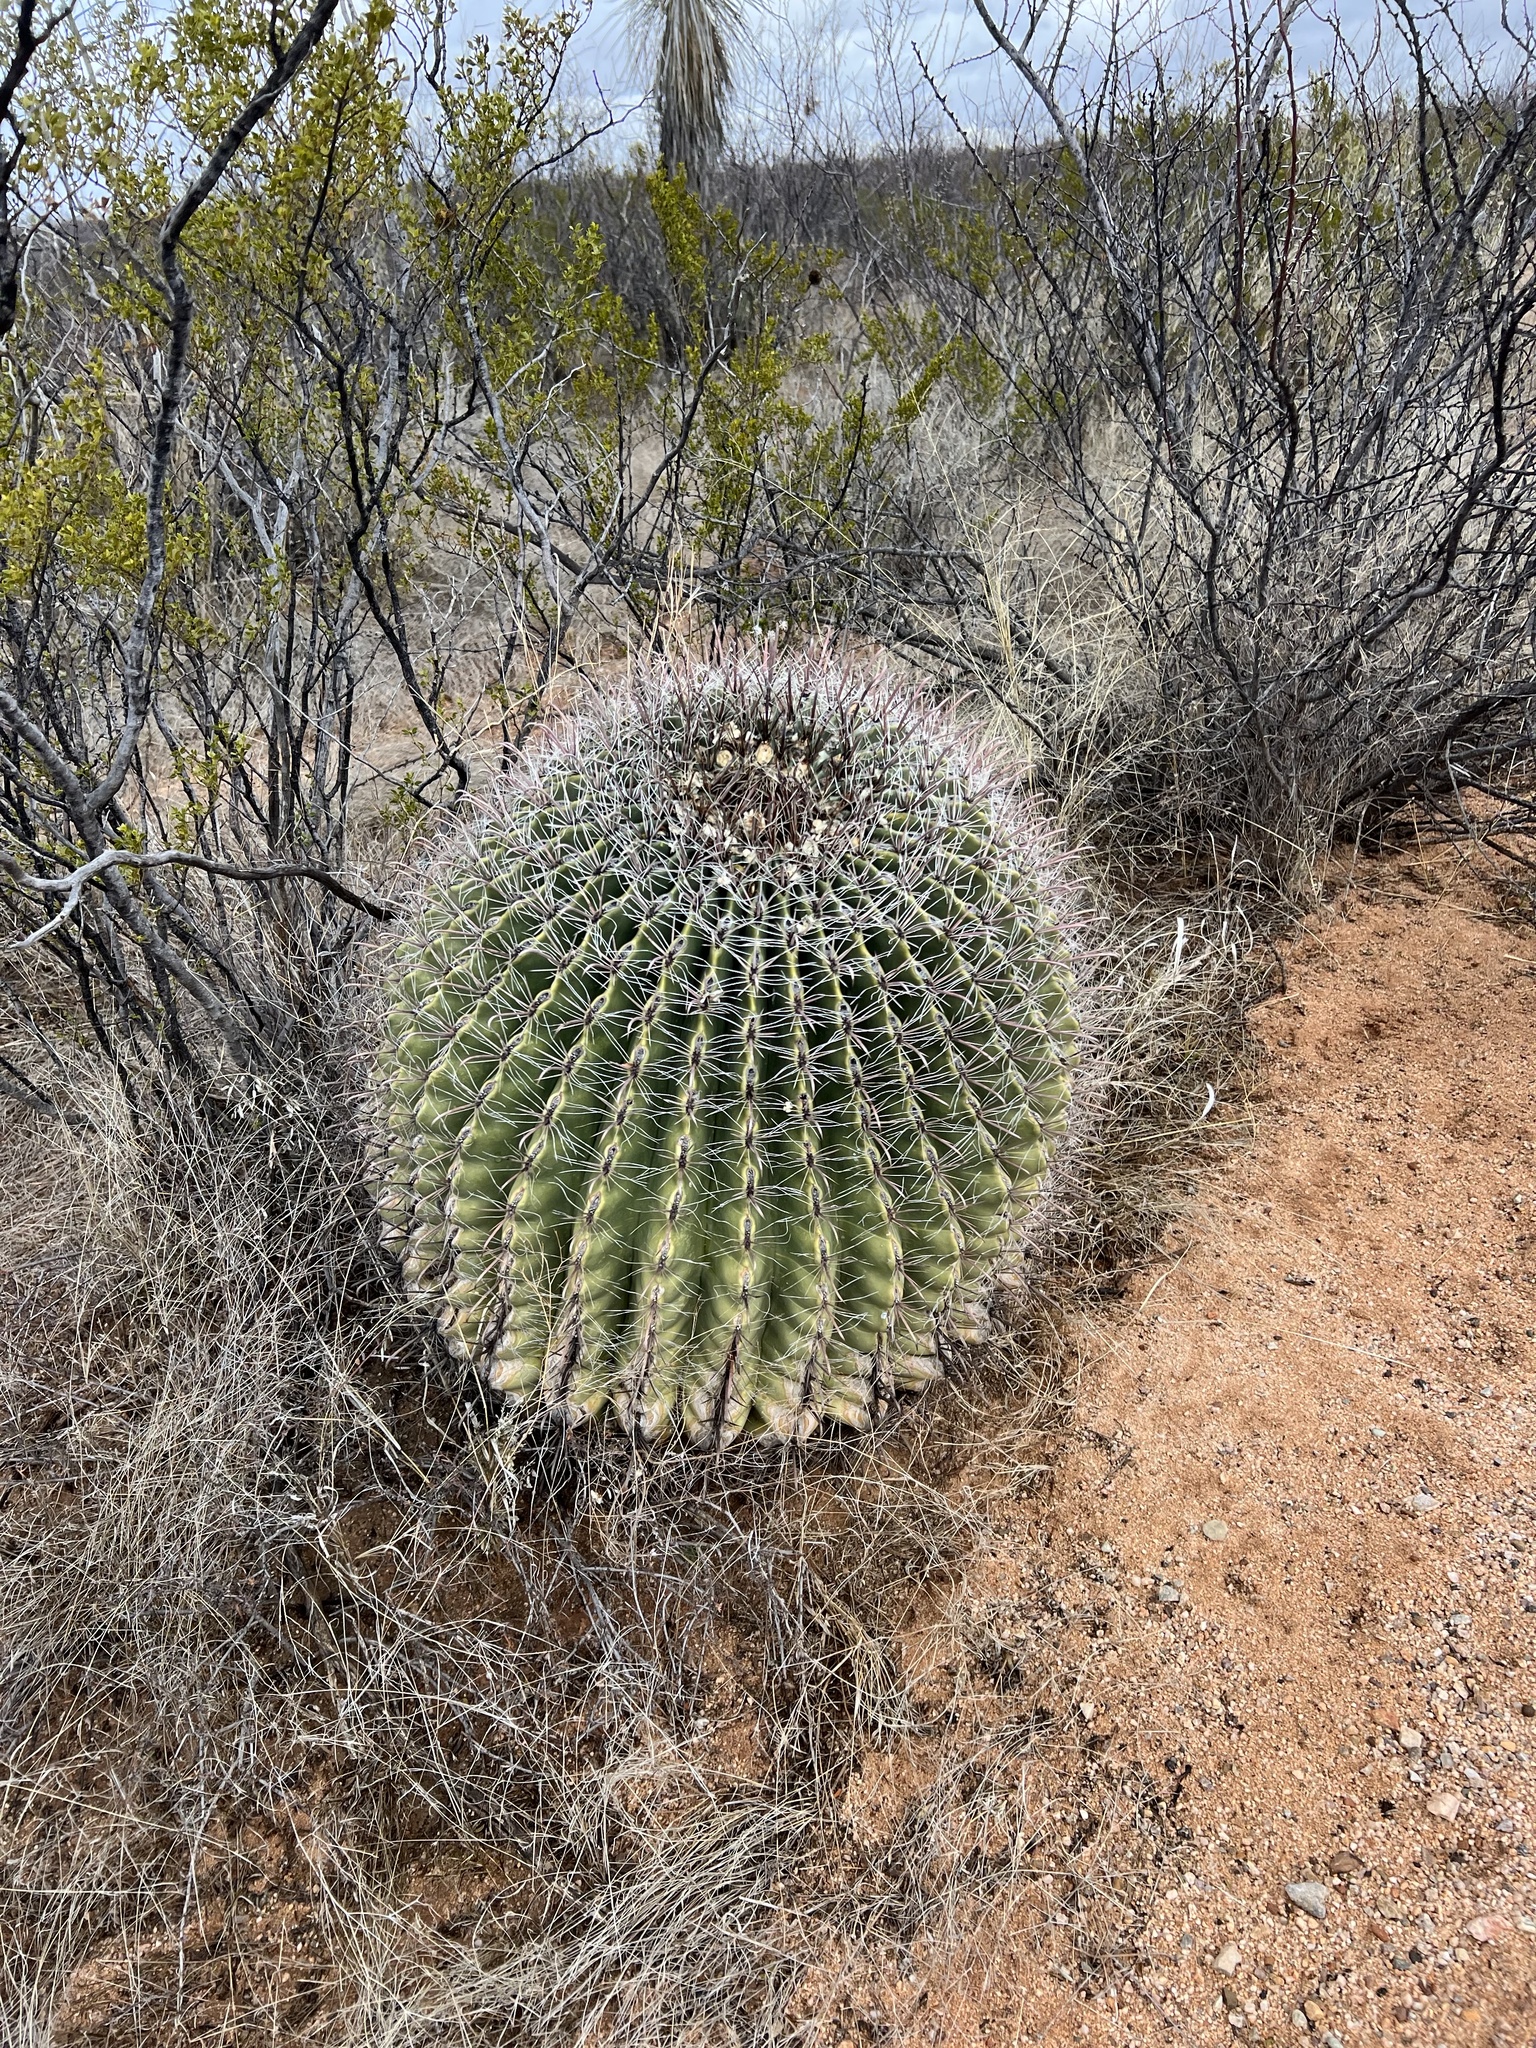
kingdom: Plantae
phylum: Tracheophyta
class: Magnoliopsida
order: Caryophyllales
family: Cactaceae
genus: Ferocactus
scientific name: Ferocactus wislizeni
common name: Candy barrel cactus
